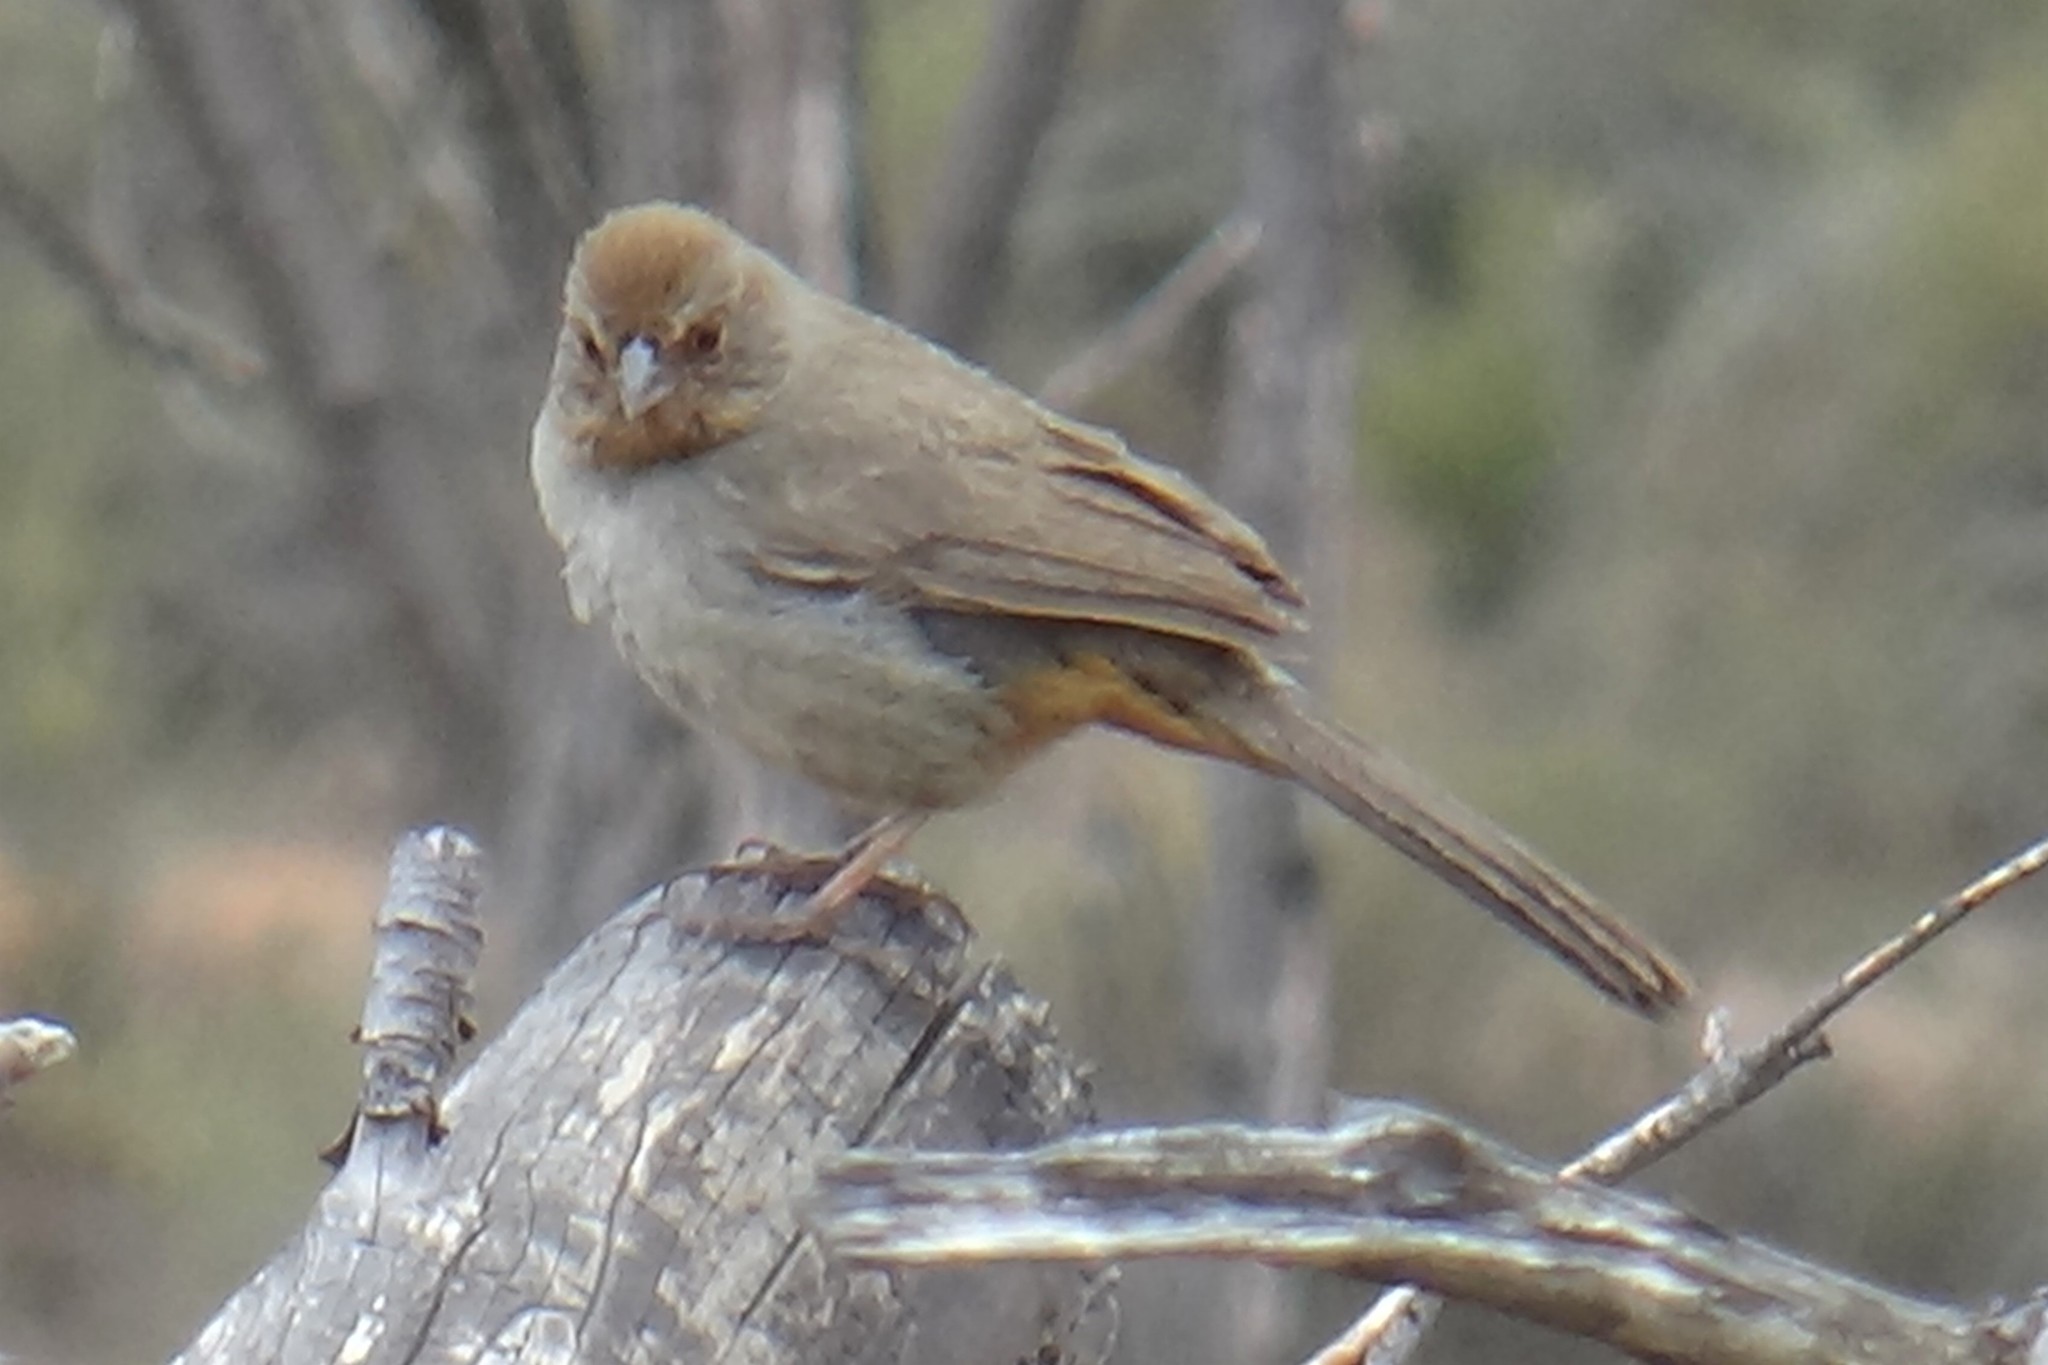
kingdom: Animalia
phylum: Chordata
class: Aves
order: Passeriformes
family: Passerellidae
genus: Melozone
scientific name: Melozone crissalis
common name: California towhee
